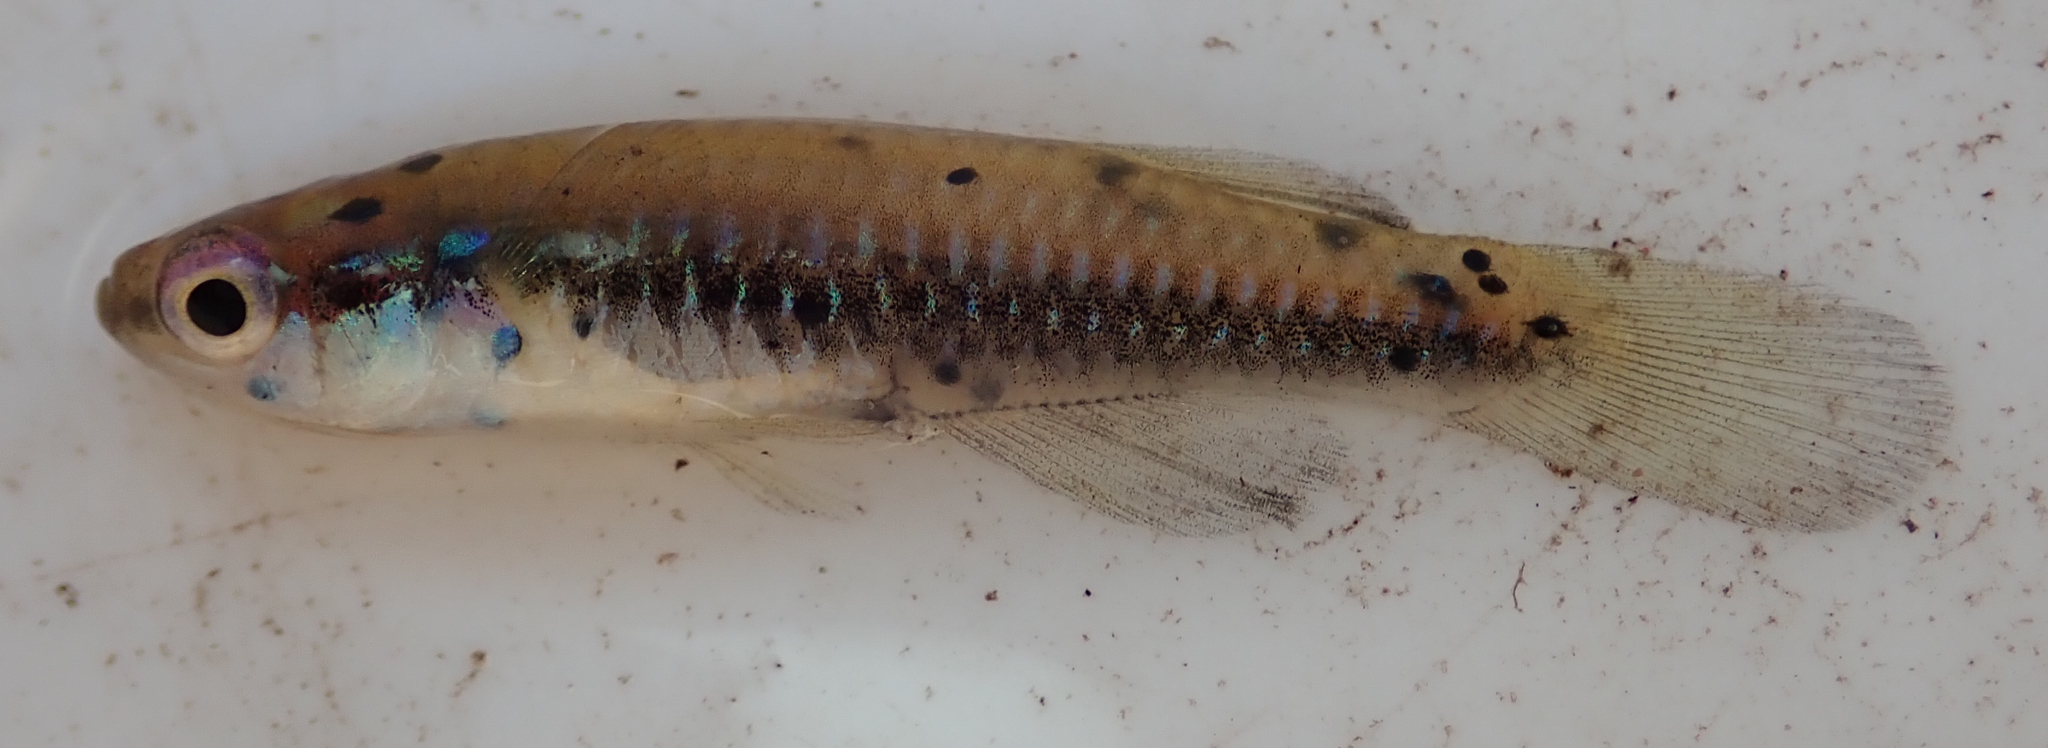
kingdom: Animalia
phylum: Chordata
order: Cyprinodontiformes
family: Poeciliidae
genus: Lacustricola
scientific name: Lacustricola katangae
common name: Striped topminnow
